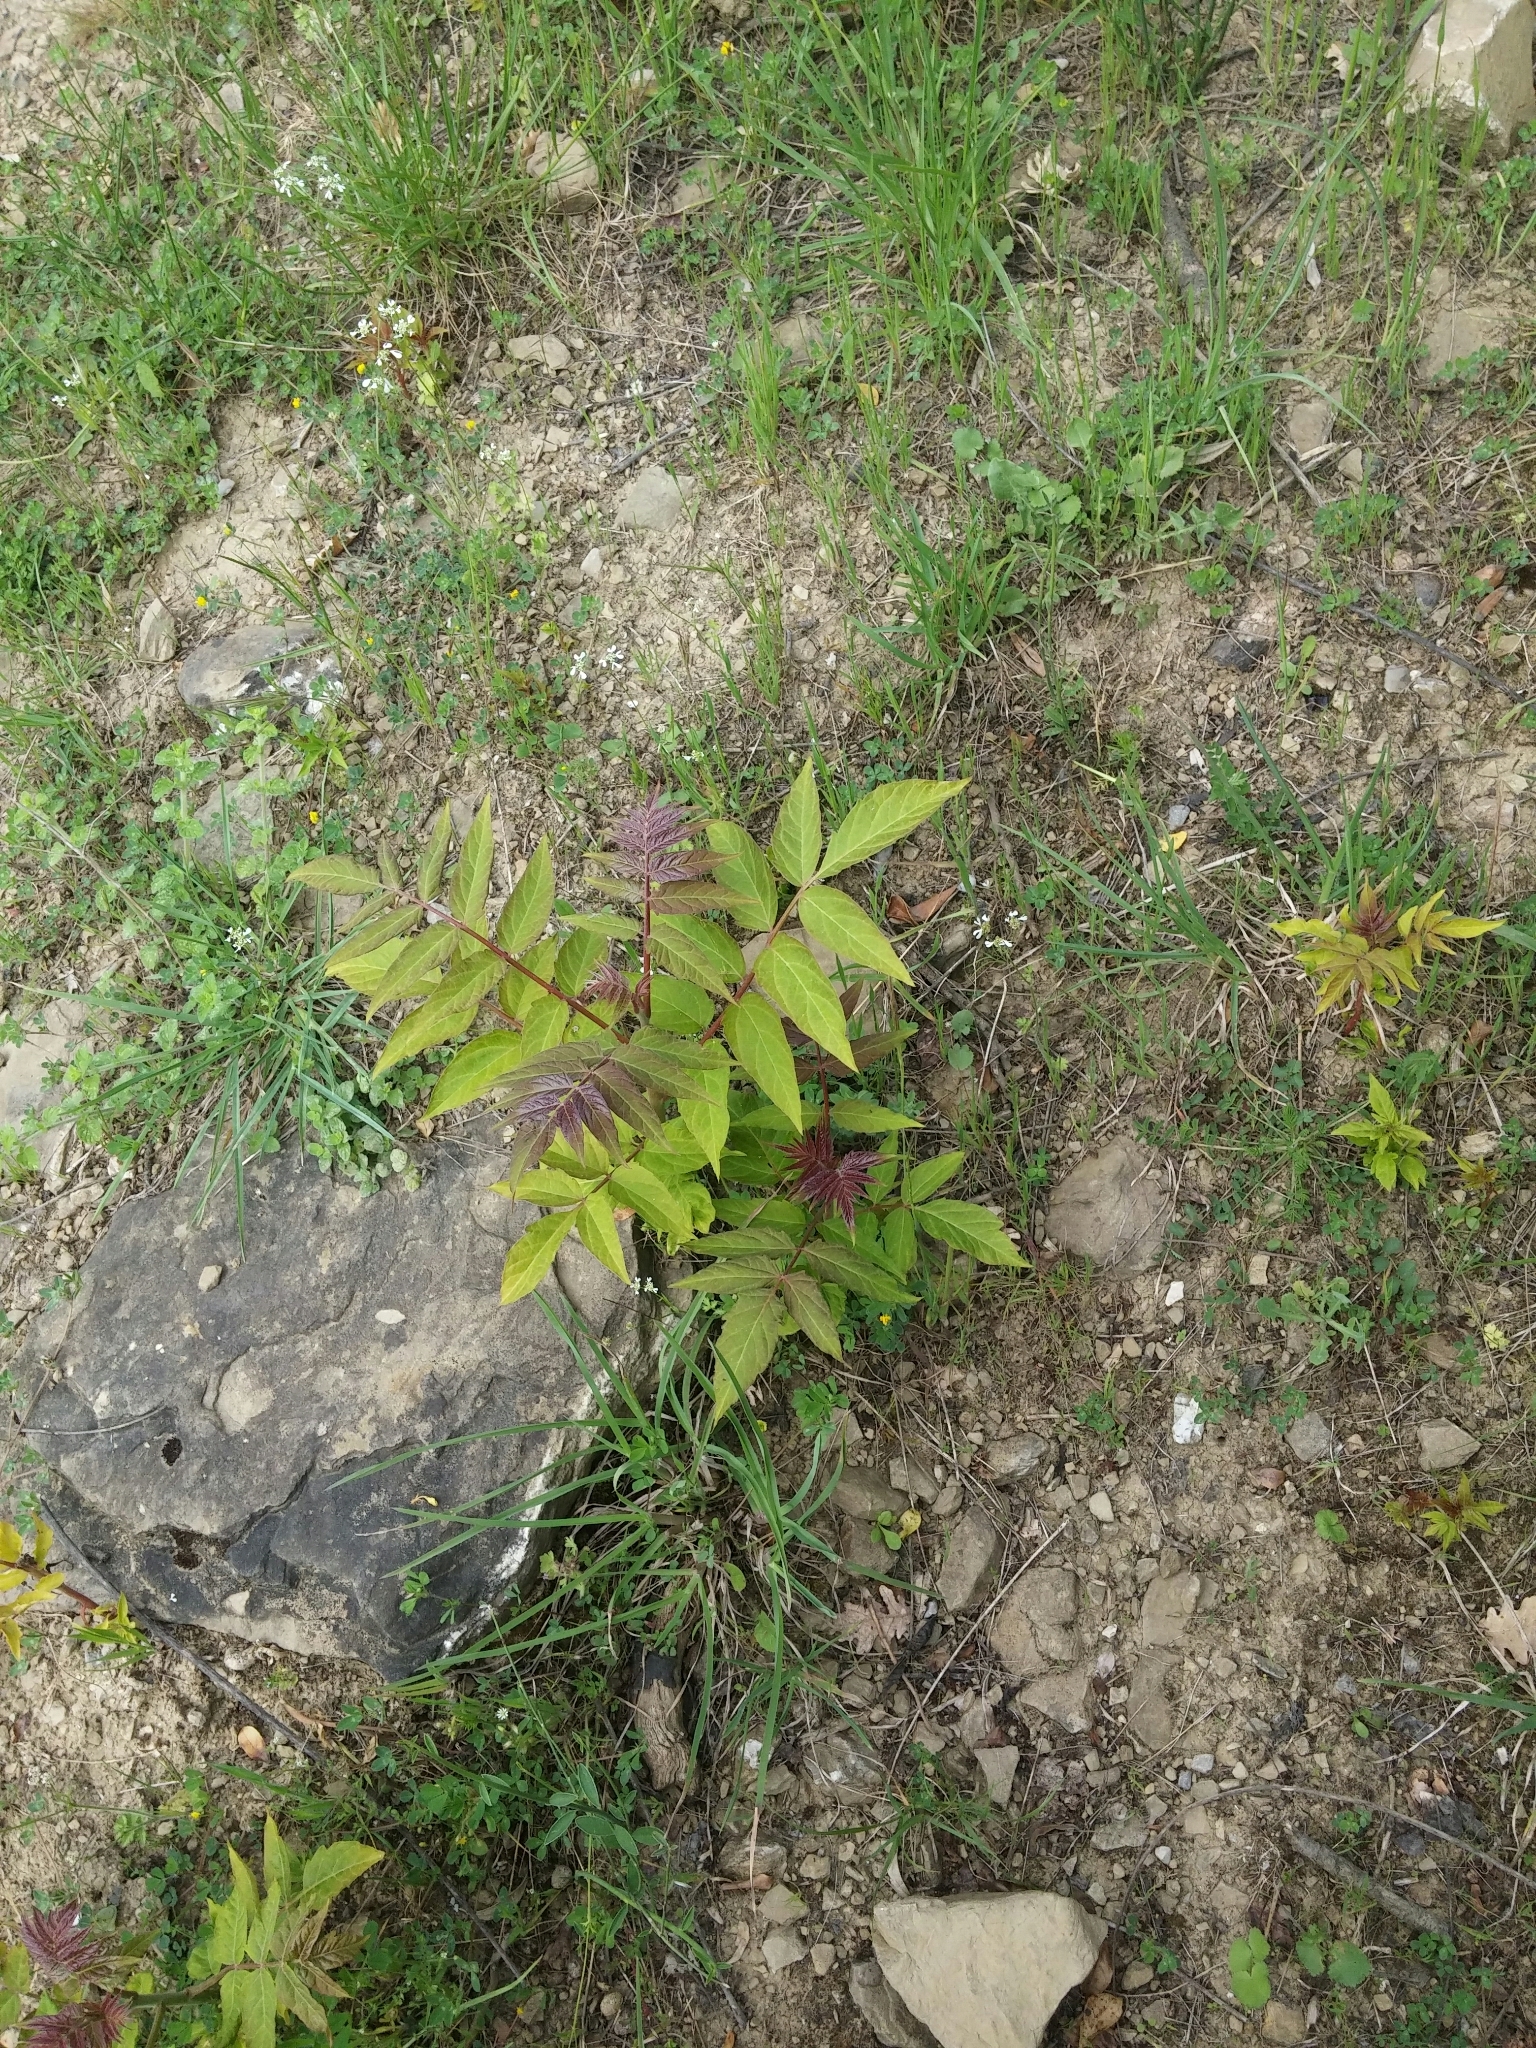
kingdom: Plantae
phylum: Tracheophyta
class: Magnoliopsida
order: Sapindales
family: Simaroubaceae
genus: Ailanthus
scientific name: Ailanthus altissima
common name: Tree-of-heaven
